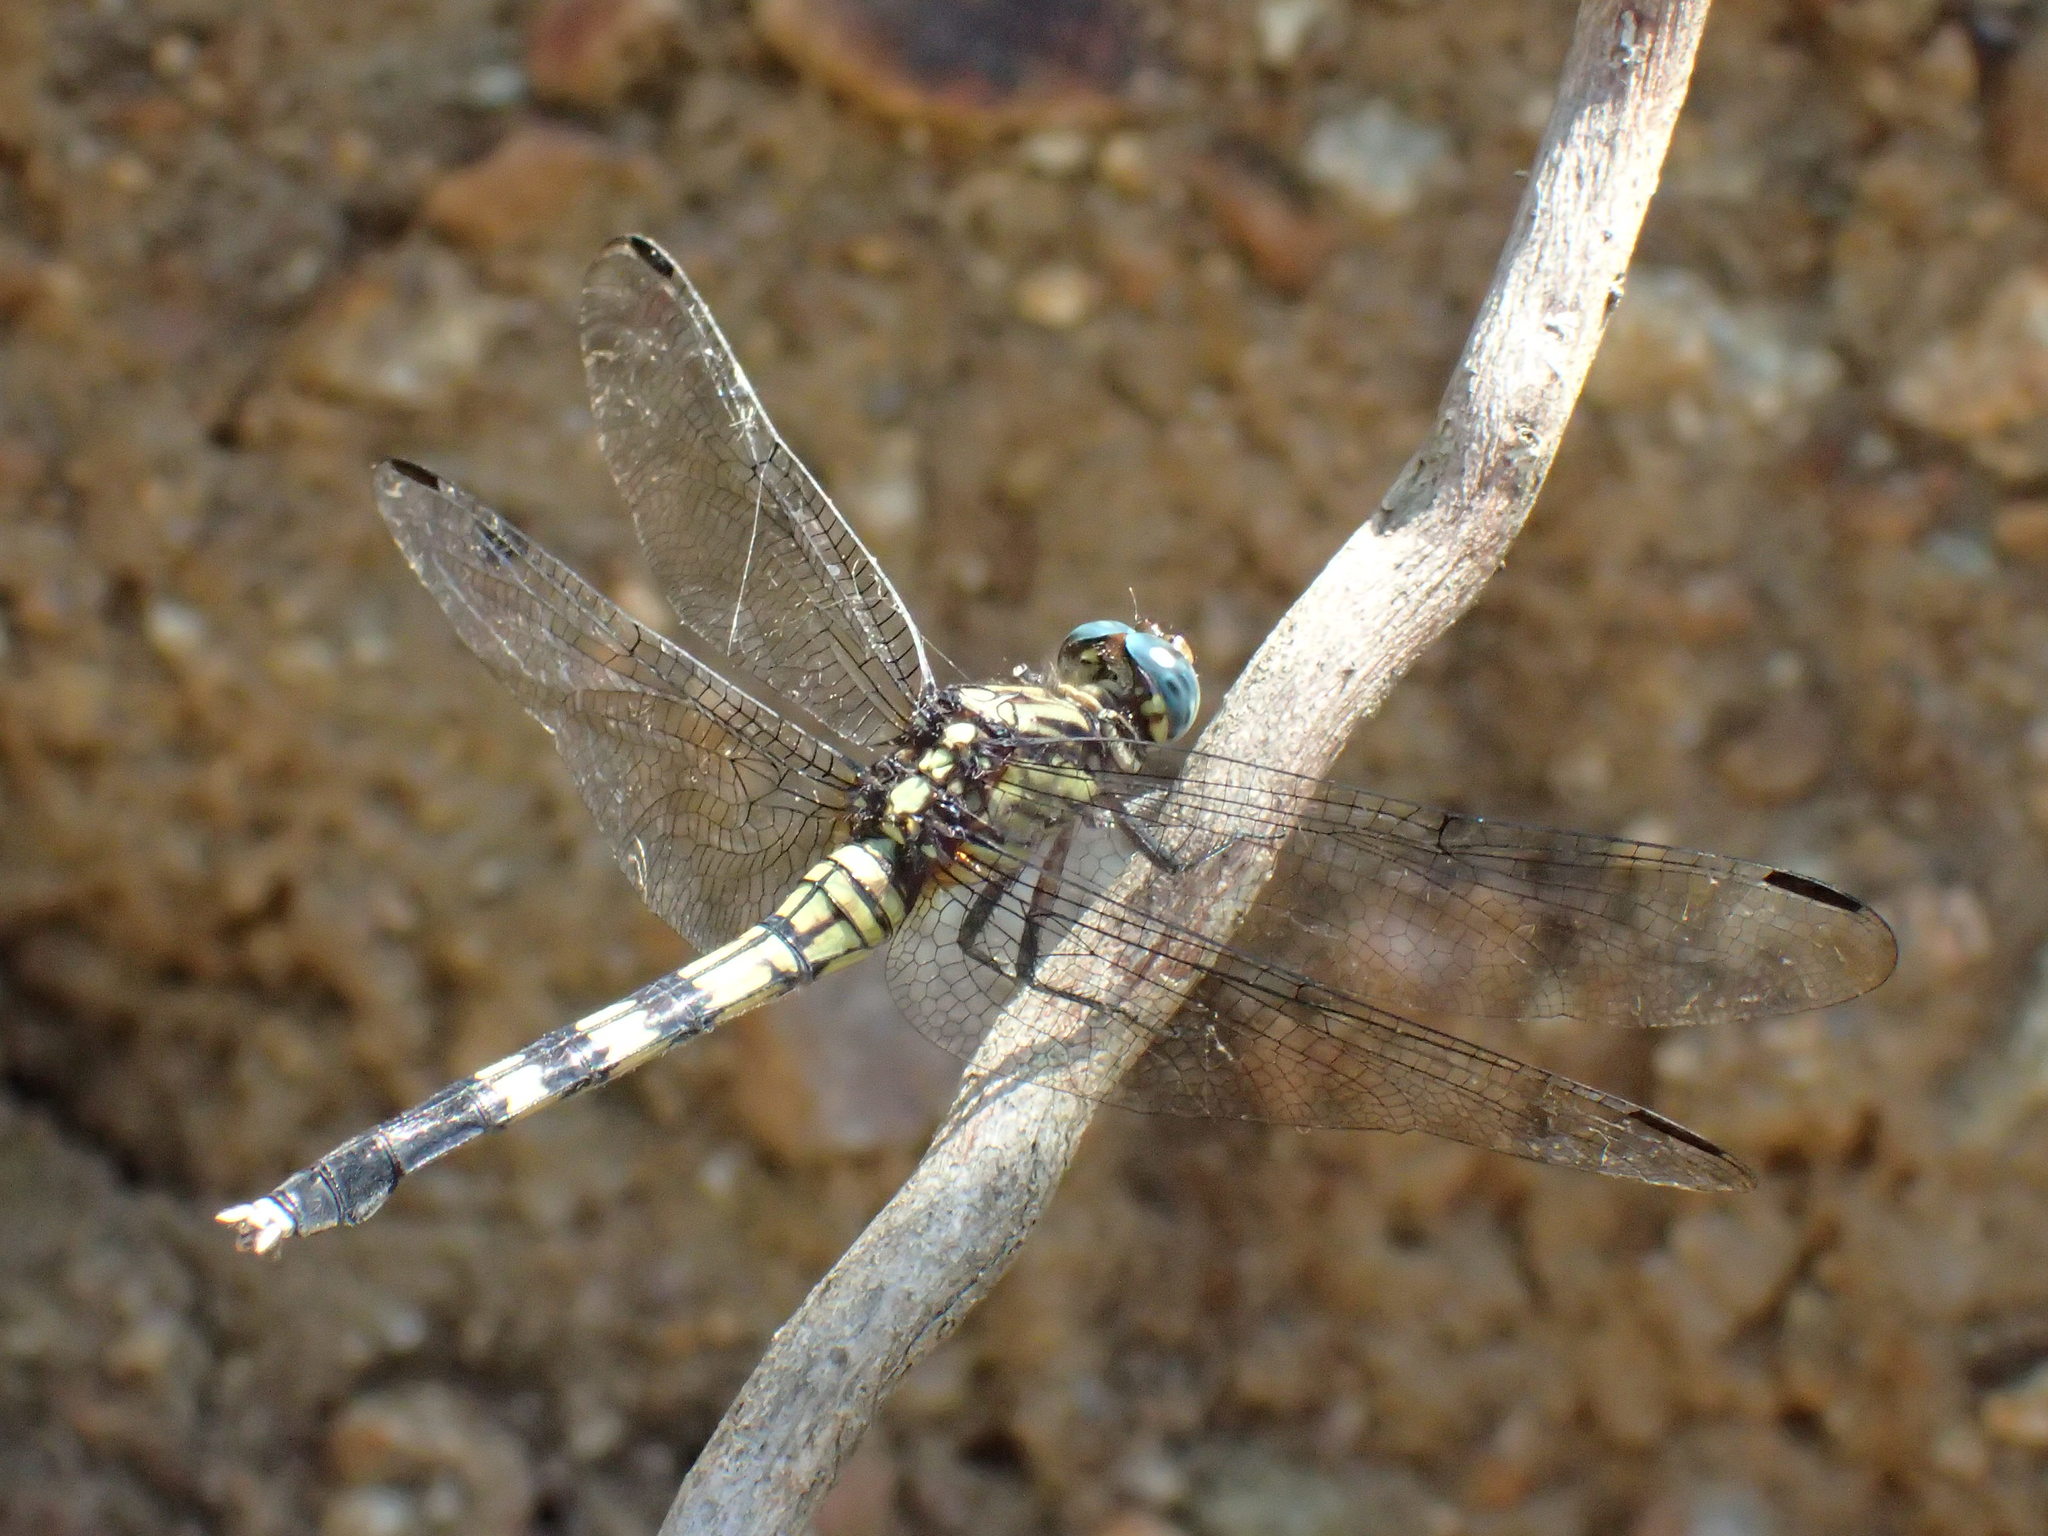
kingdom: Animalia
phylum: Arthropoda
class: Insecta
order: Odonata
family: Libellulidae
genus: Orthetrum
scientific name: Orthetrum julia
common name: Julia skimmer
